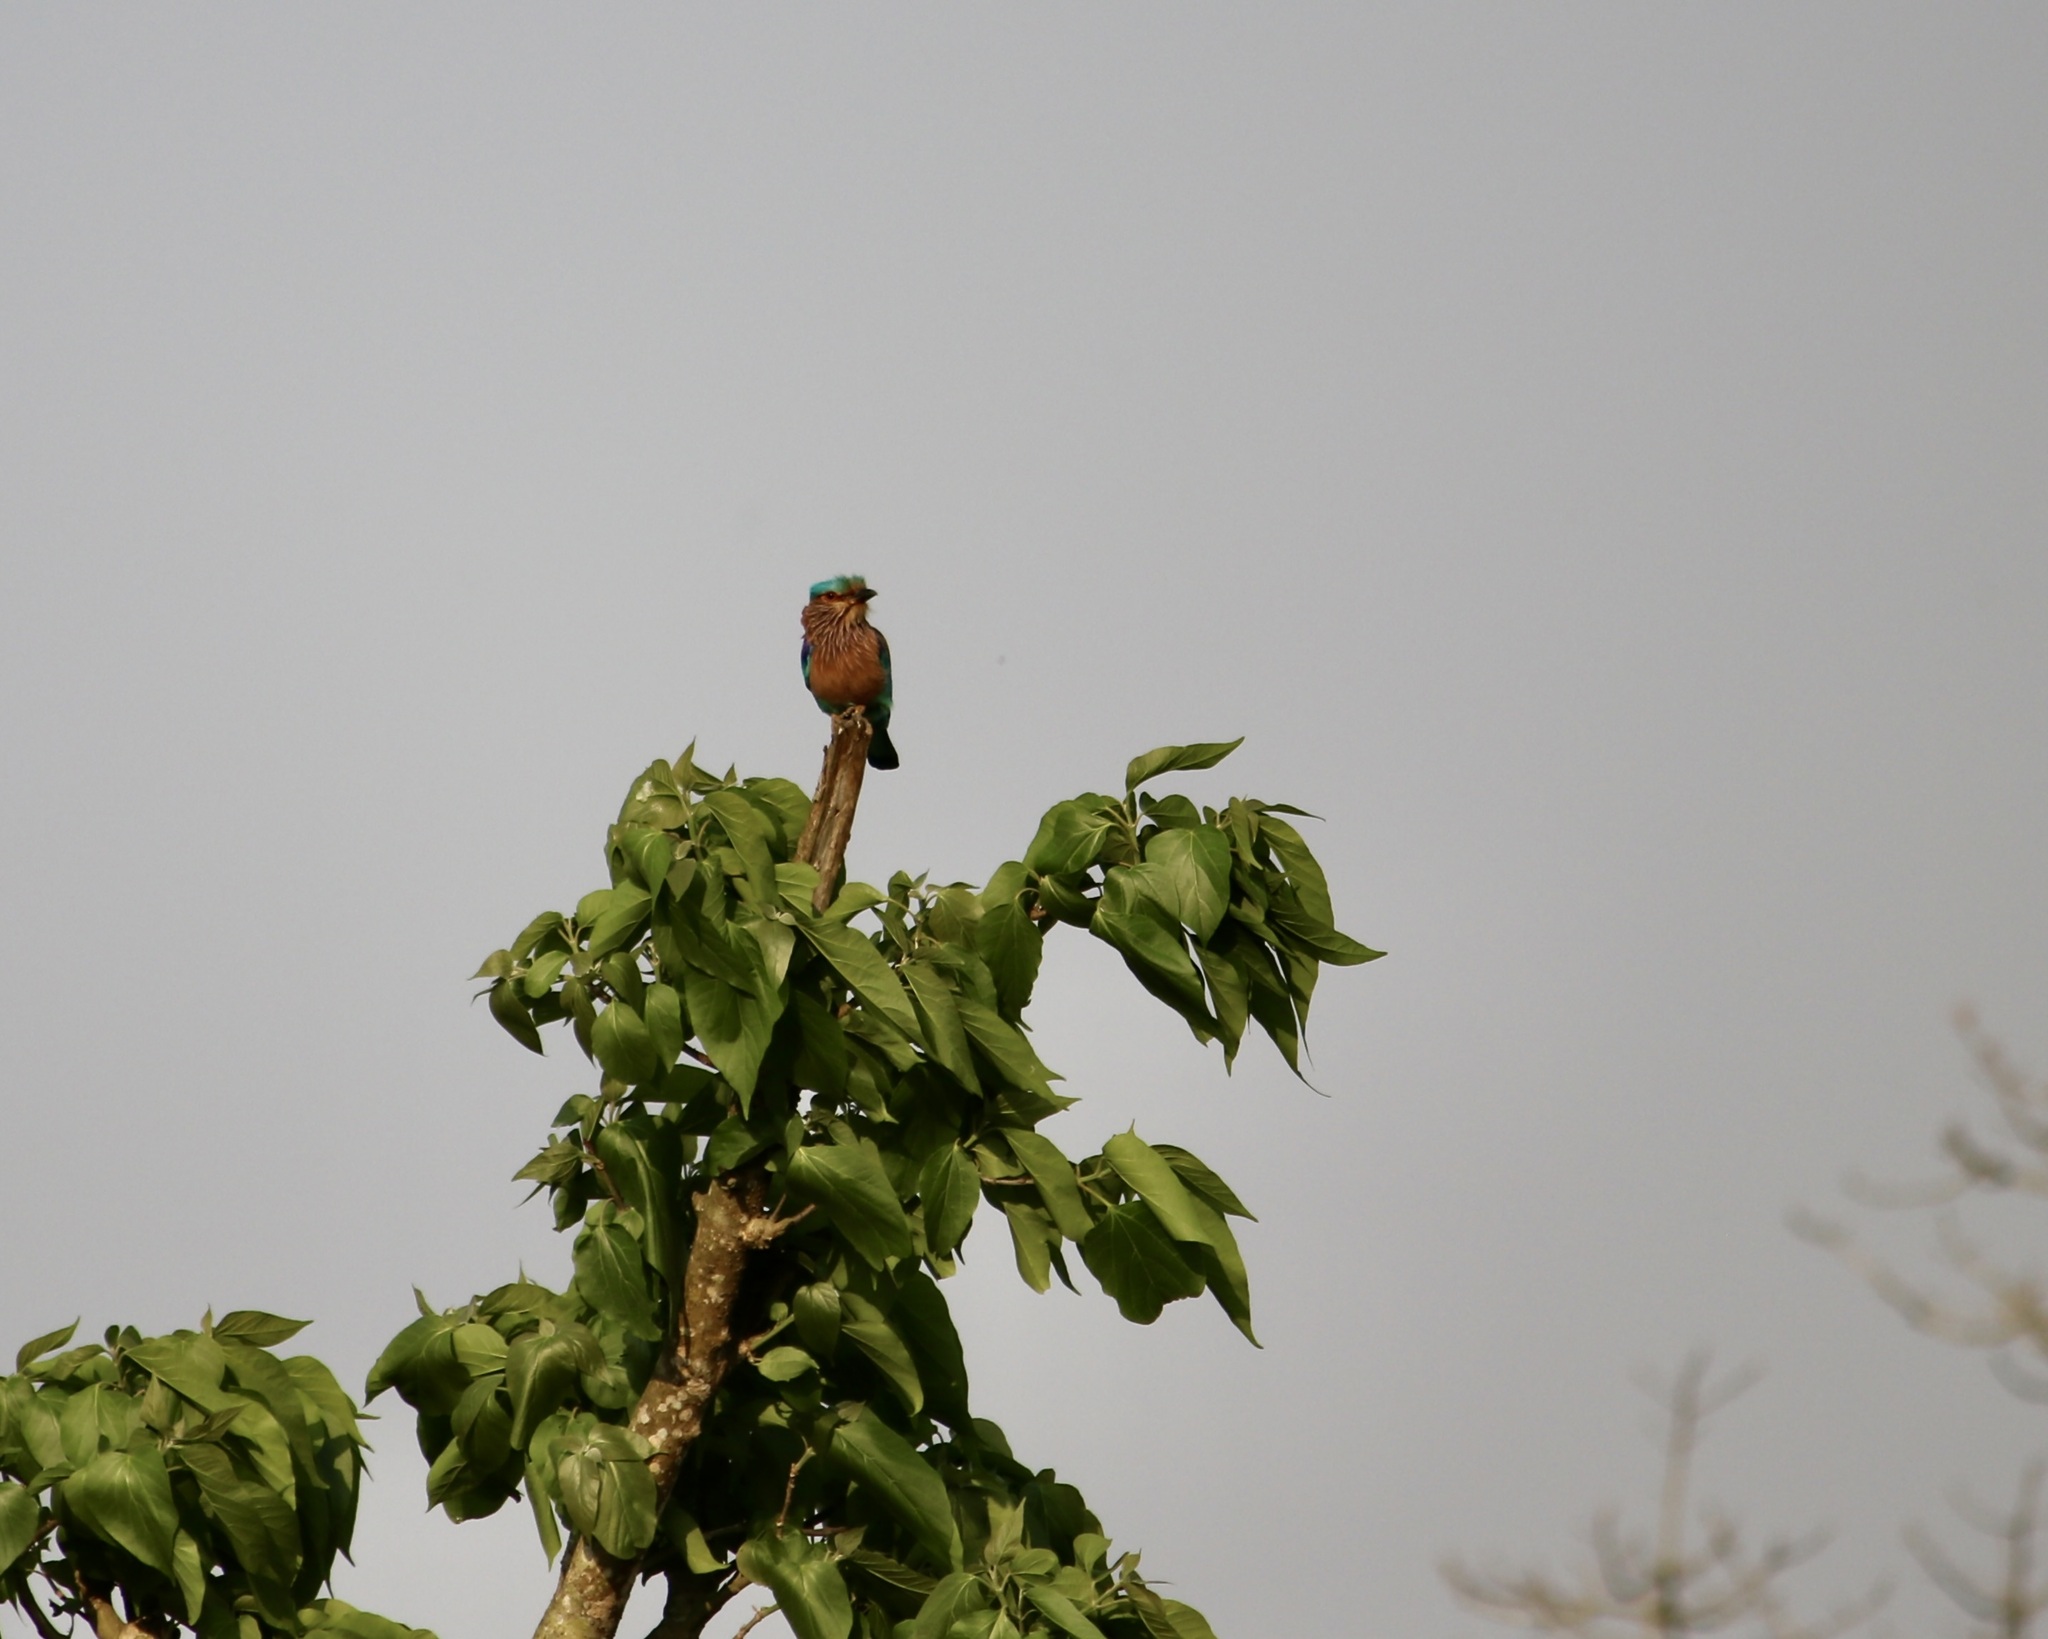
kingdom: Animalia
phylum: Chordata
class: Aves
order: Coraciiformes
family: Coraciidae
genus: Coracias
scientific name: Coracias benghalensis
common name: Indian roller
